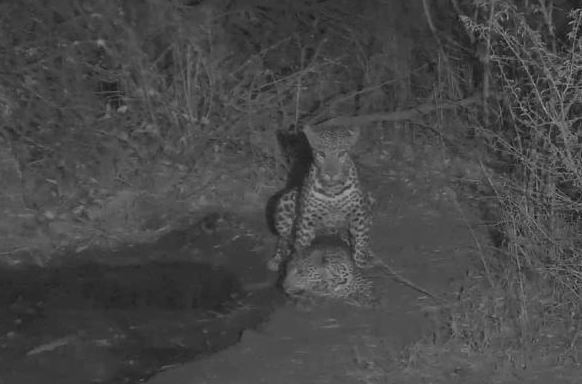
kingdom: Animalia
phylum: Chordata
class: Mammalia
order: Carnivora
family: Felidae
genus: Panthera
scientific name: Panthera pardus
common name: Leopard
